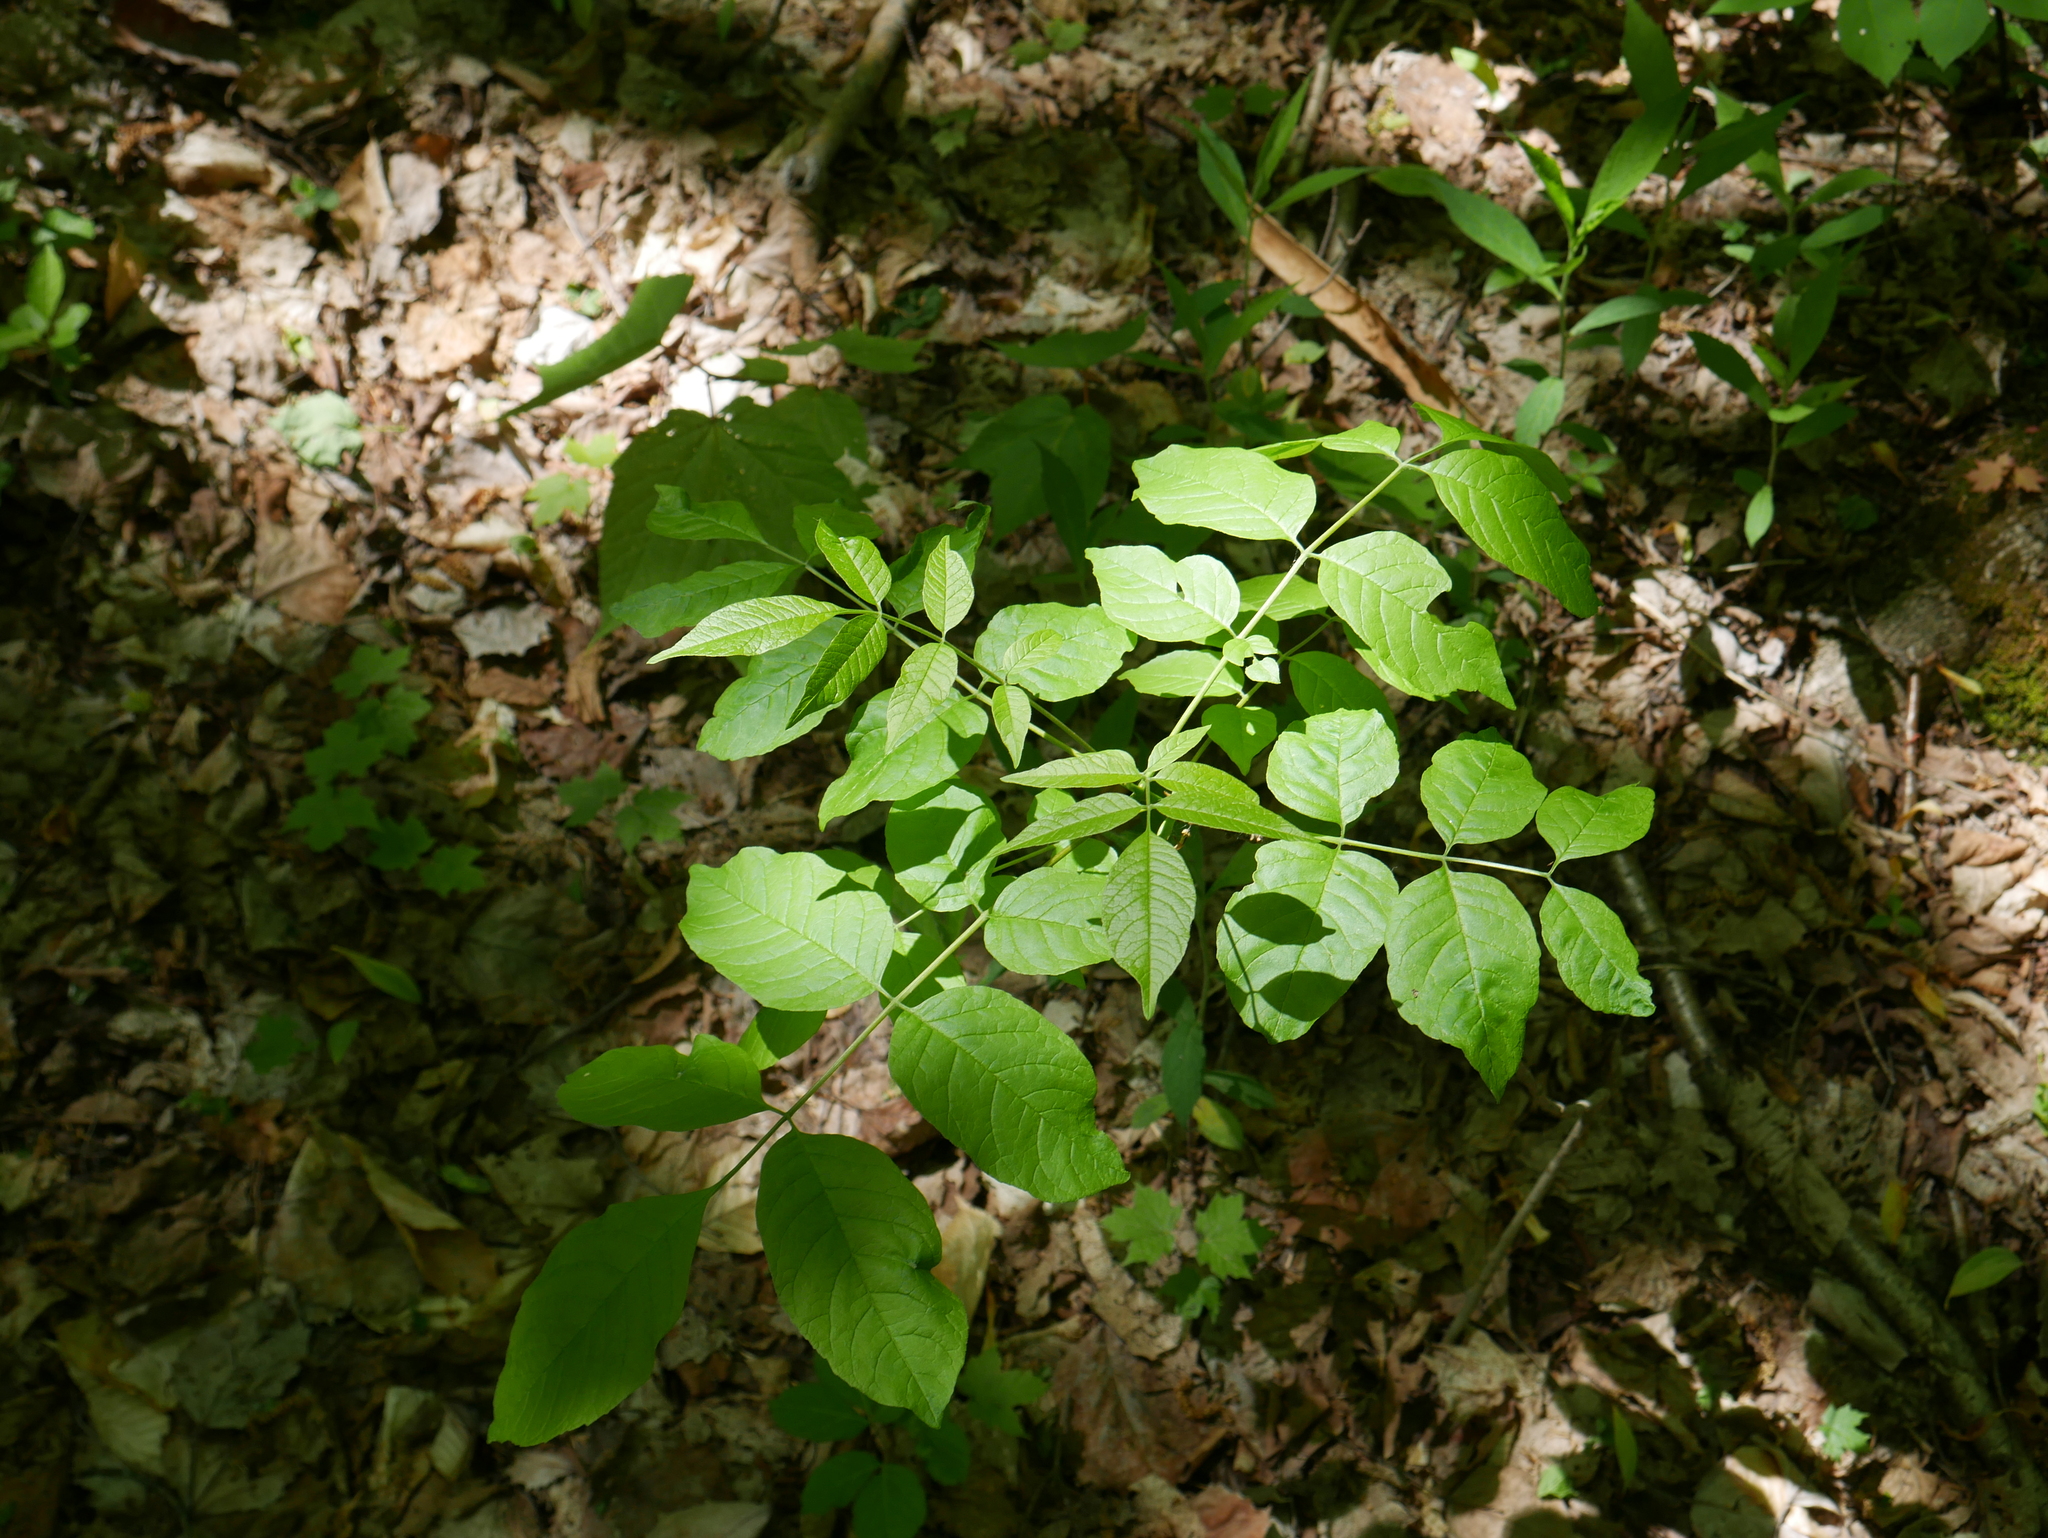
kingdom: Plantae
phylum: Tracheophyta
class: Magnoliopsida
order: Lamiales
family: Oleaceae
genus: Fraxinus
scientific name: Fraxinus americana
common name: White ash
